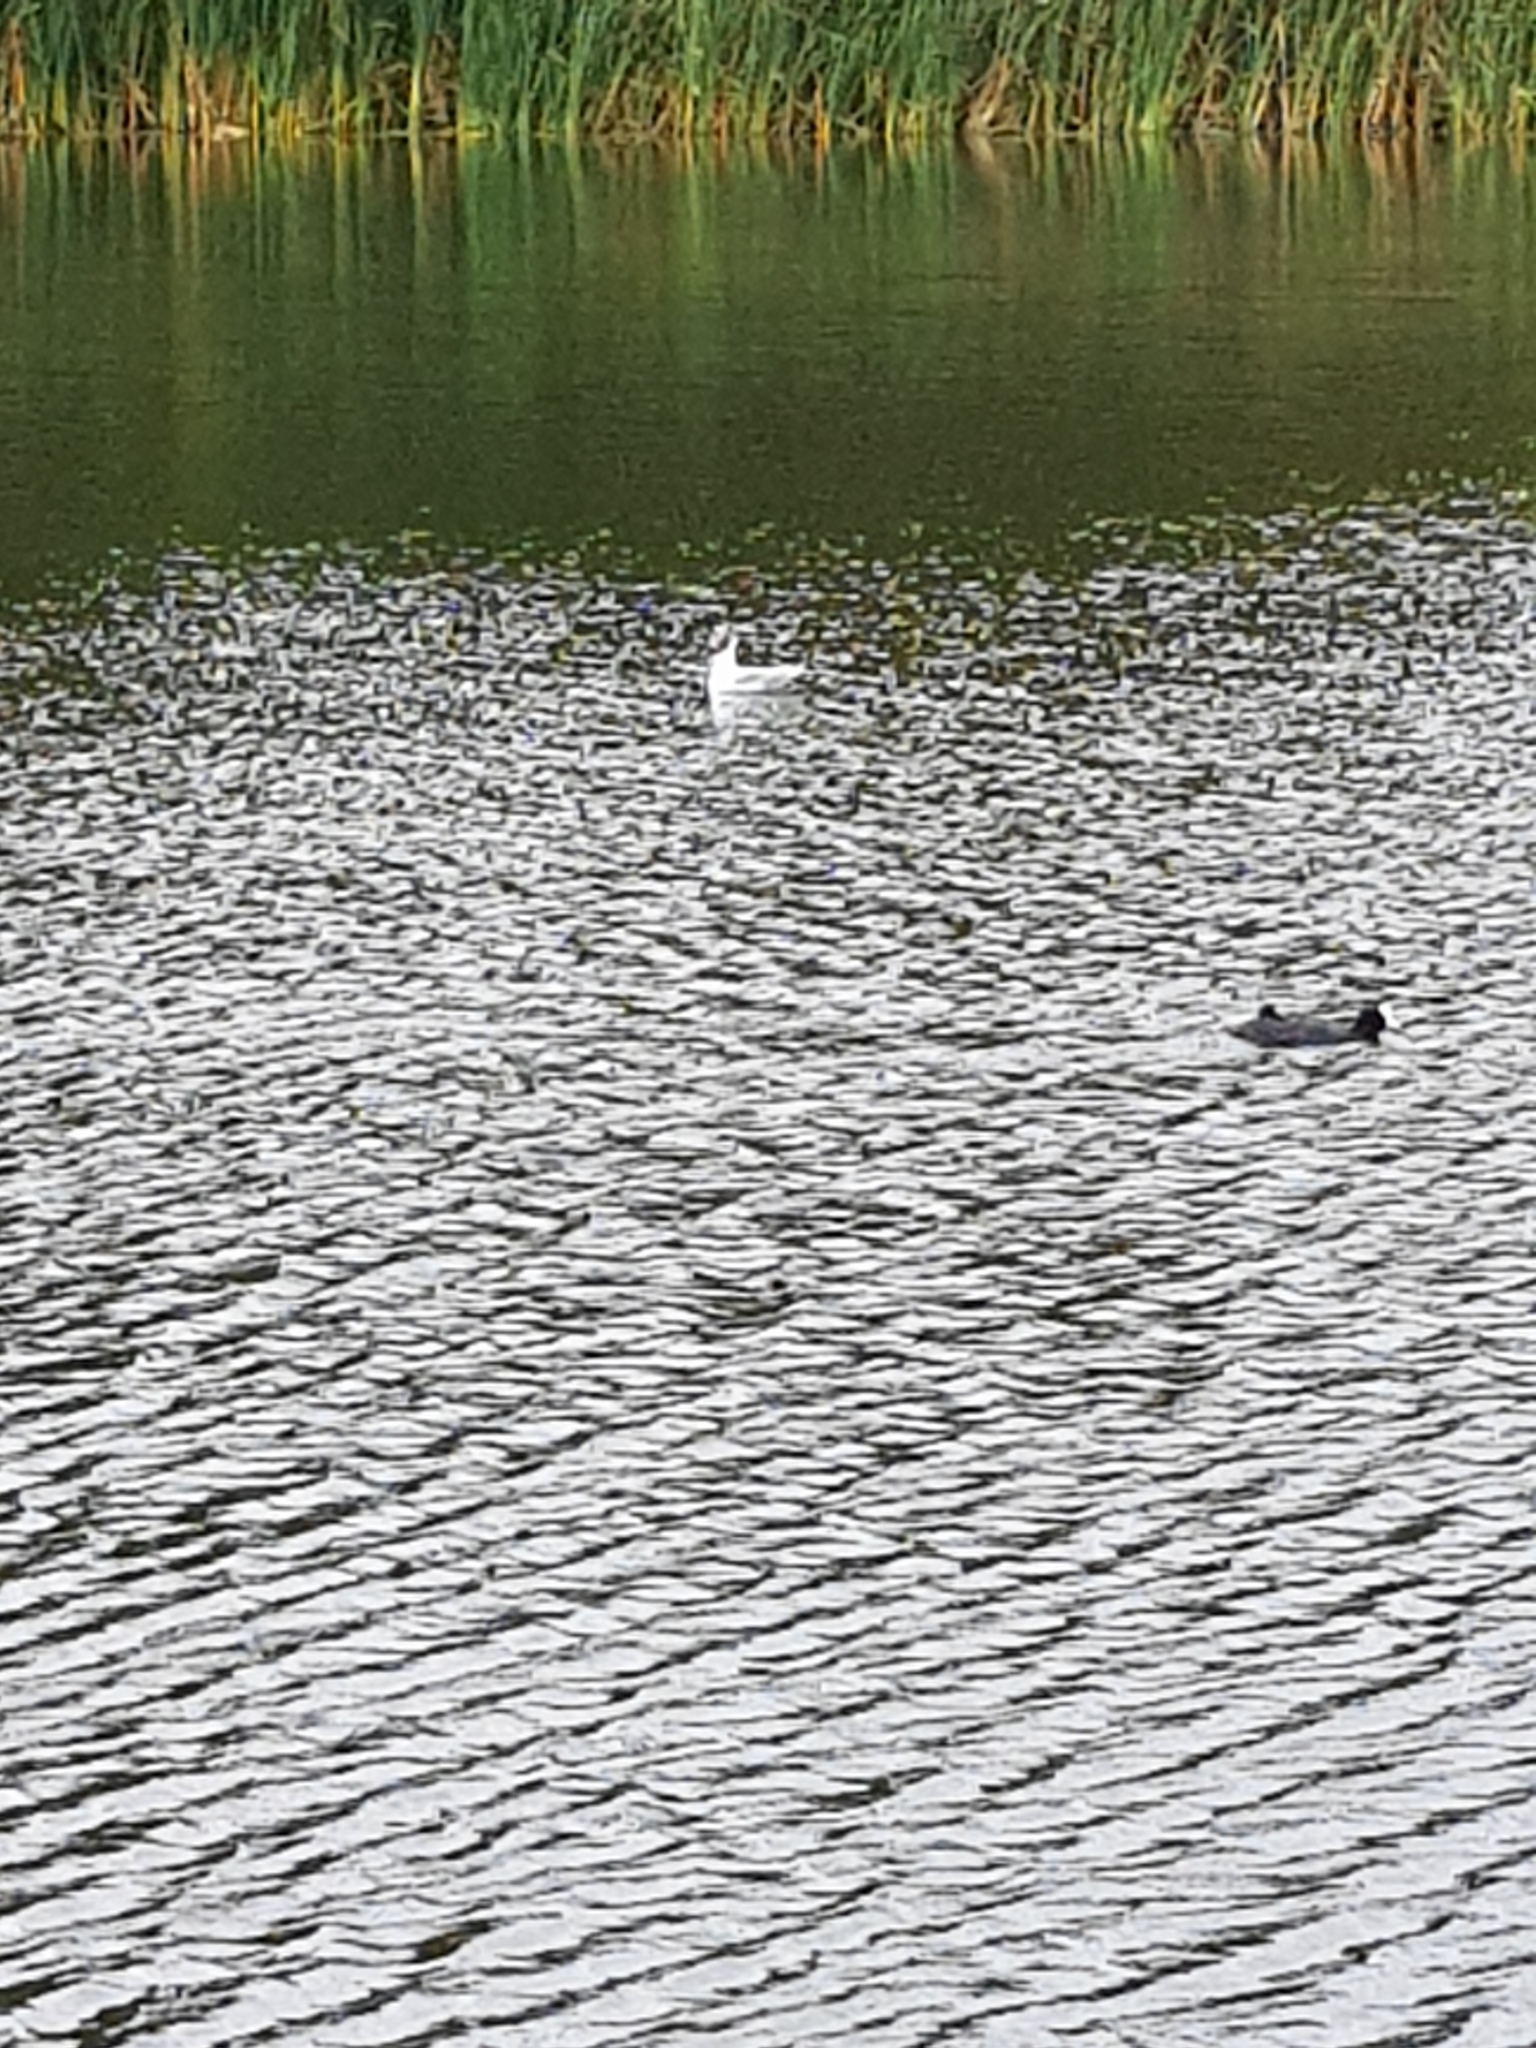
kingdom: Animalia
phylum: Chordata
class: Aves
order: Charadriiformes
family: Laridae
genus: Chroicocephalus
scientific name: Chroicocephalus ridibundus
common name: Black-headed gull
